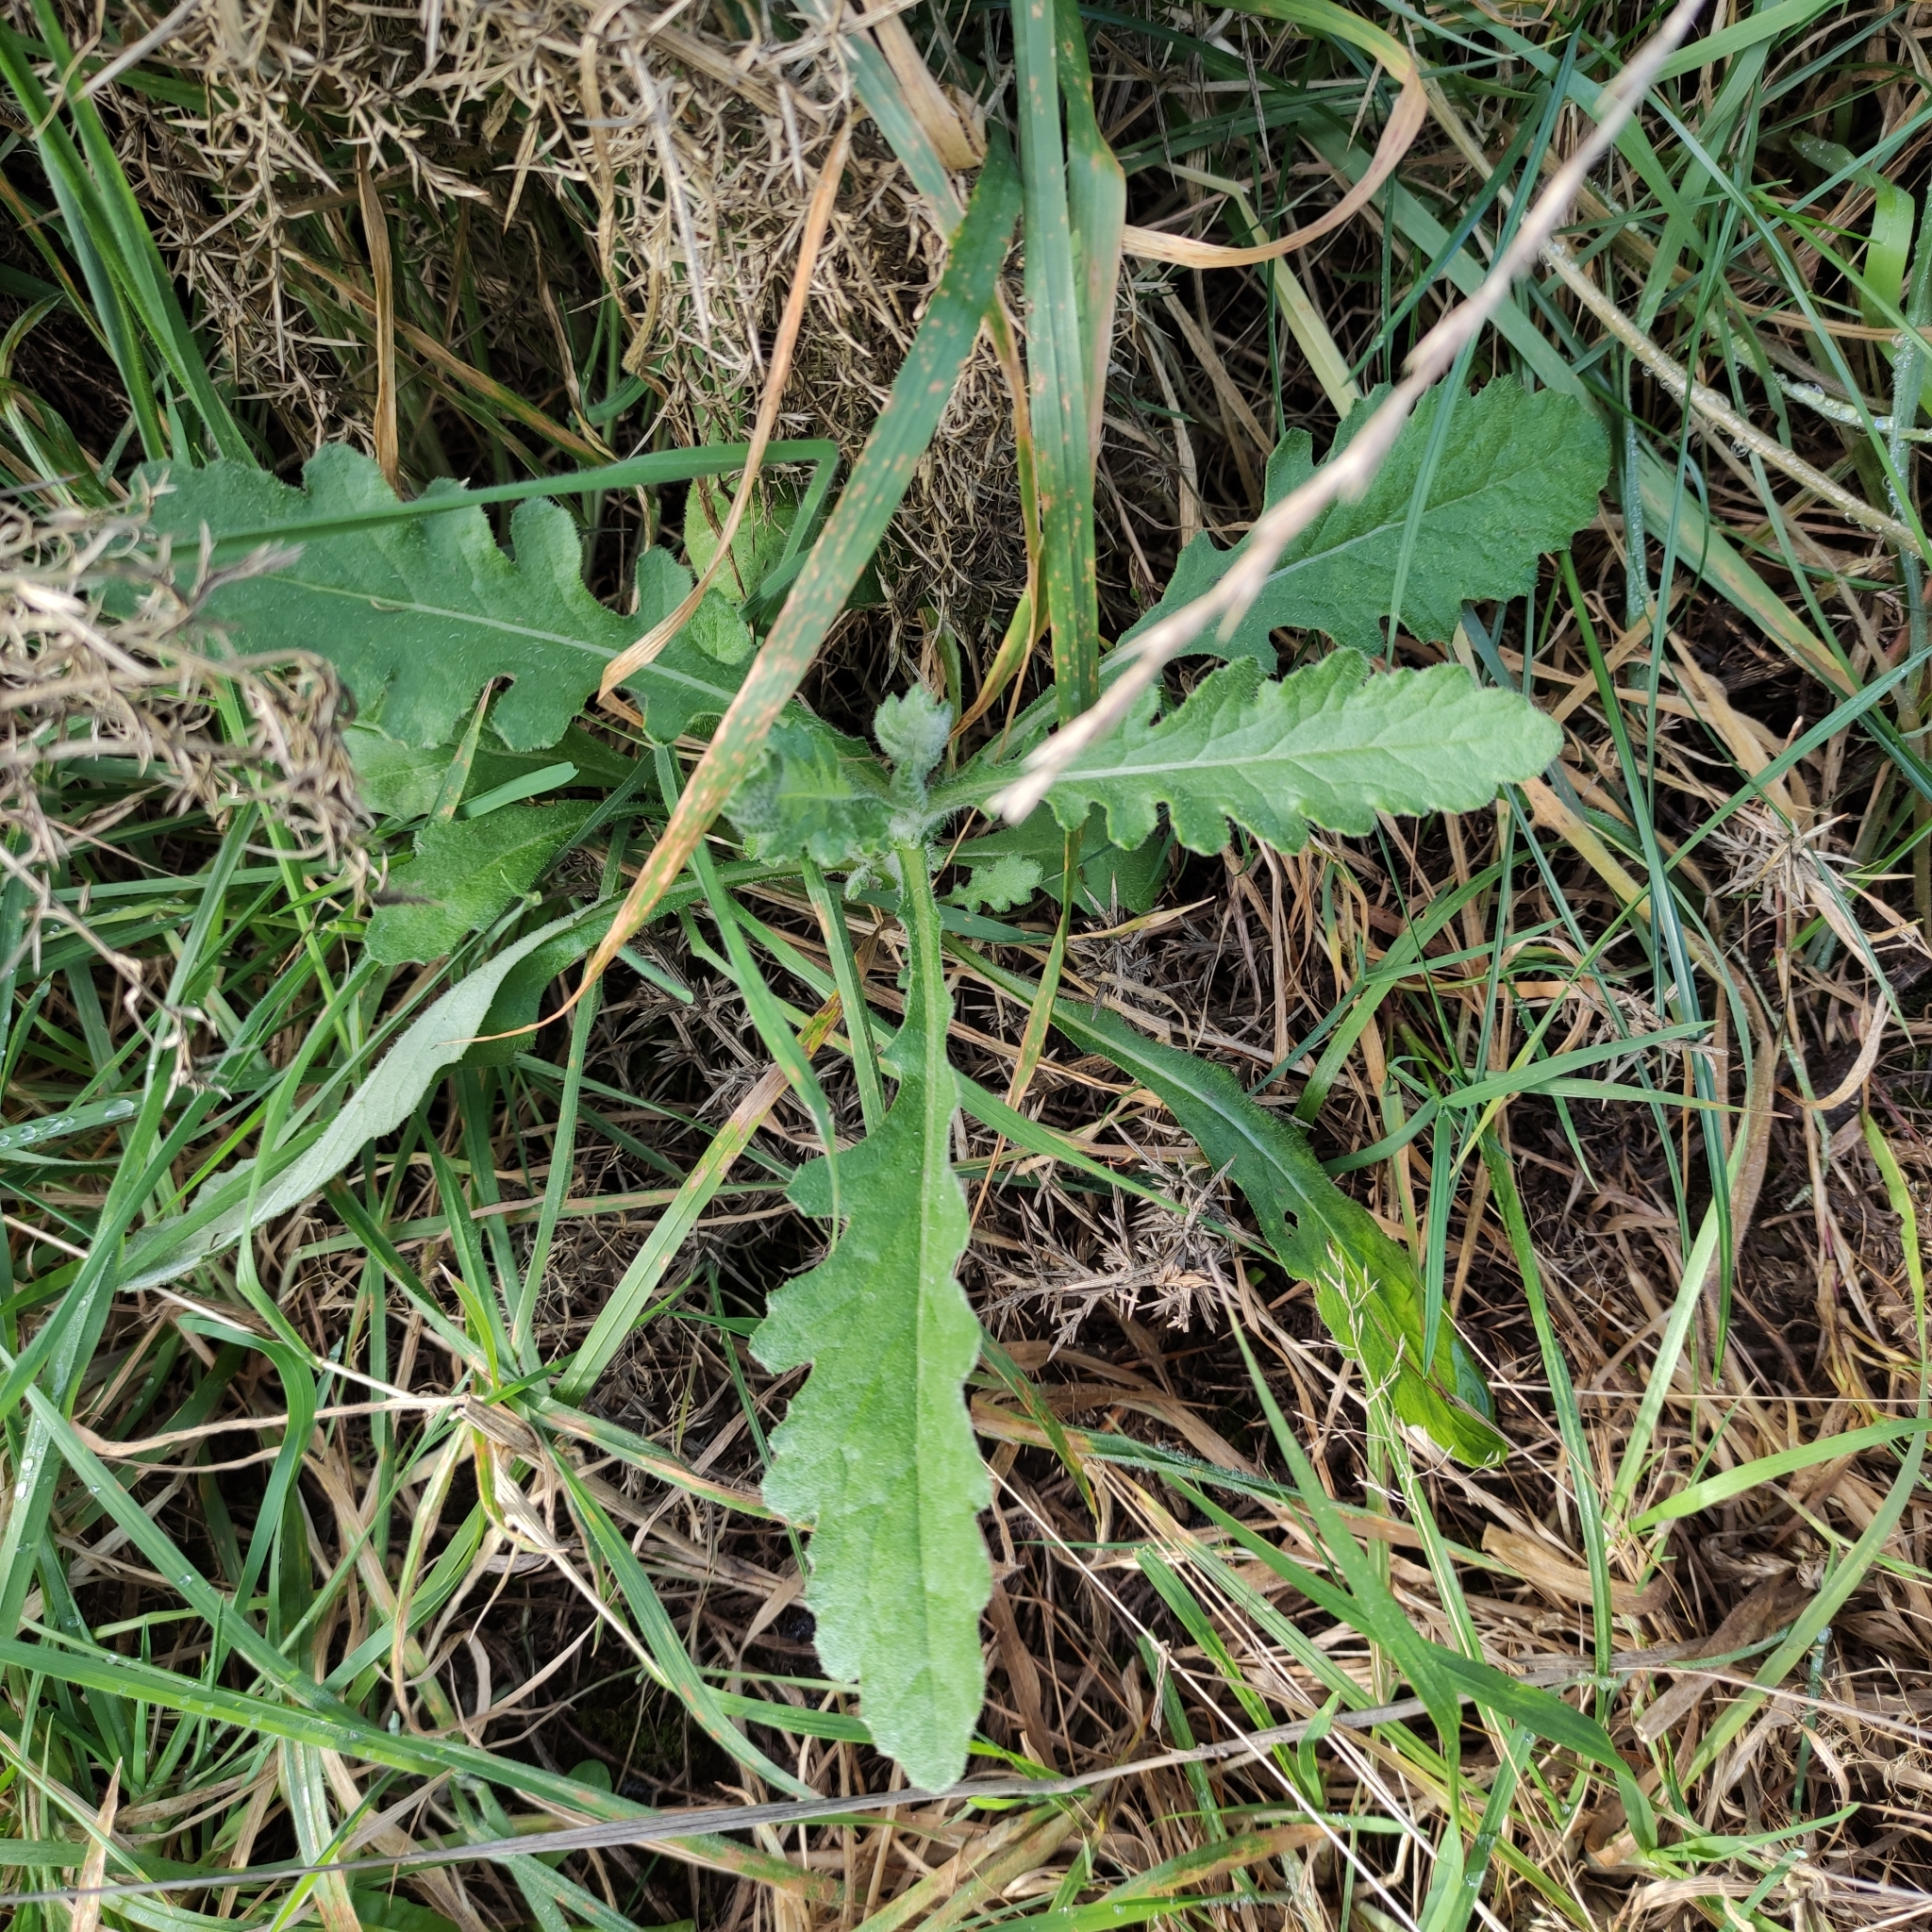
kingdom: Plantae
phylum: Tracheophyta
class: Magnoliopsida
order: Asterales
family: Asteraceae
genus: Senecio
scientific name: Senecio glomeratus
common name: Cutleaf burnweed
